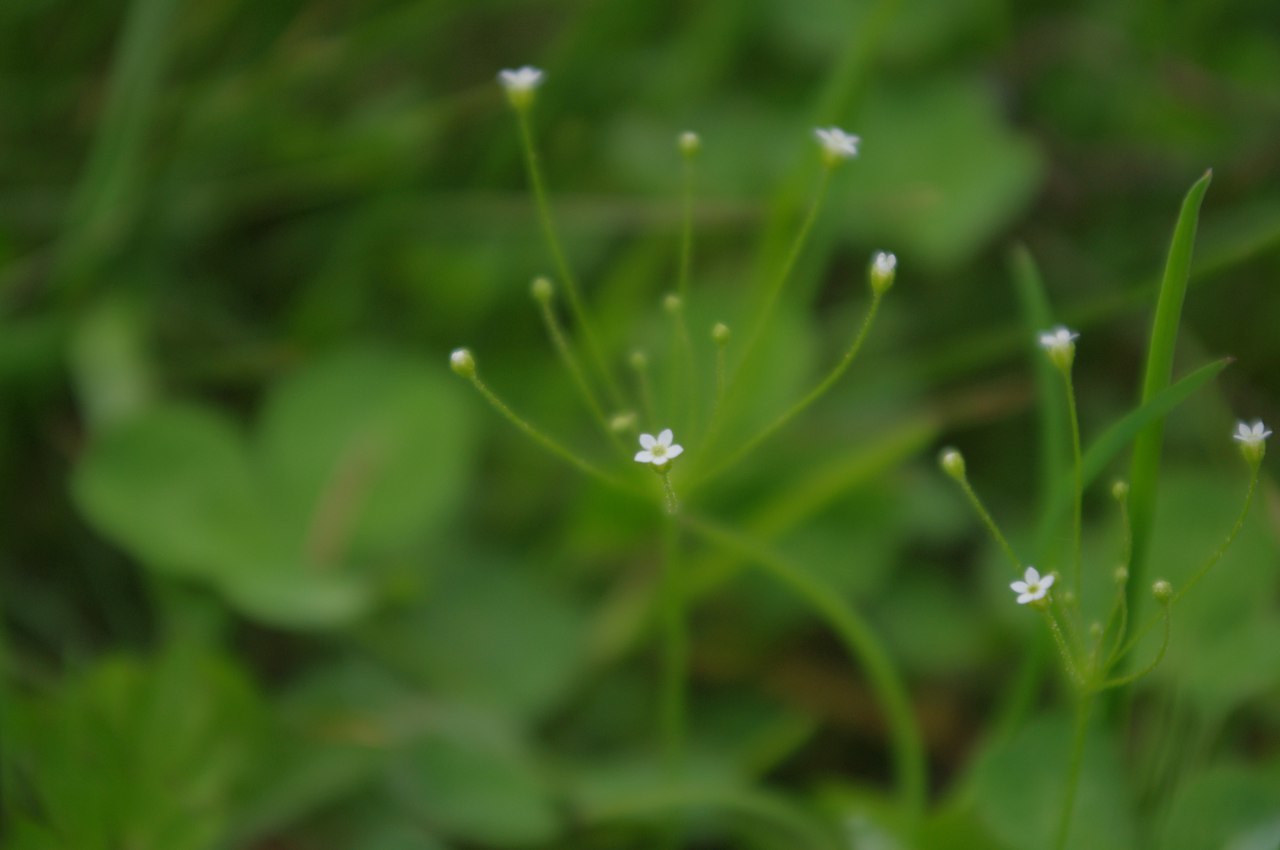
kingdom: Plantae
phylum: Tracheophyta
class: Magnoliopsida
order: Ericales
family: Primulaceae
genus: Androsace
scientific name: Androsace filiformis
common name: Filiform rock jasmine
